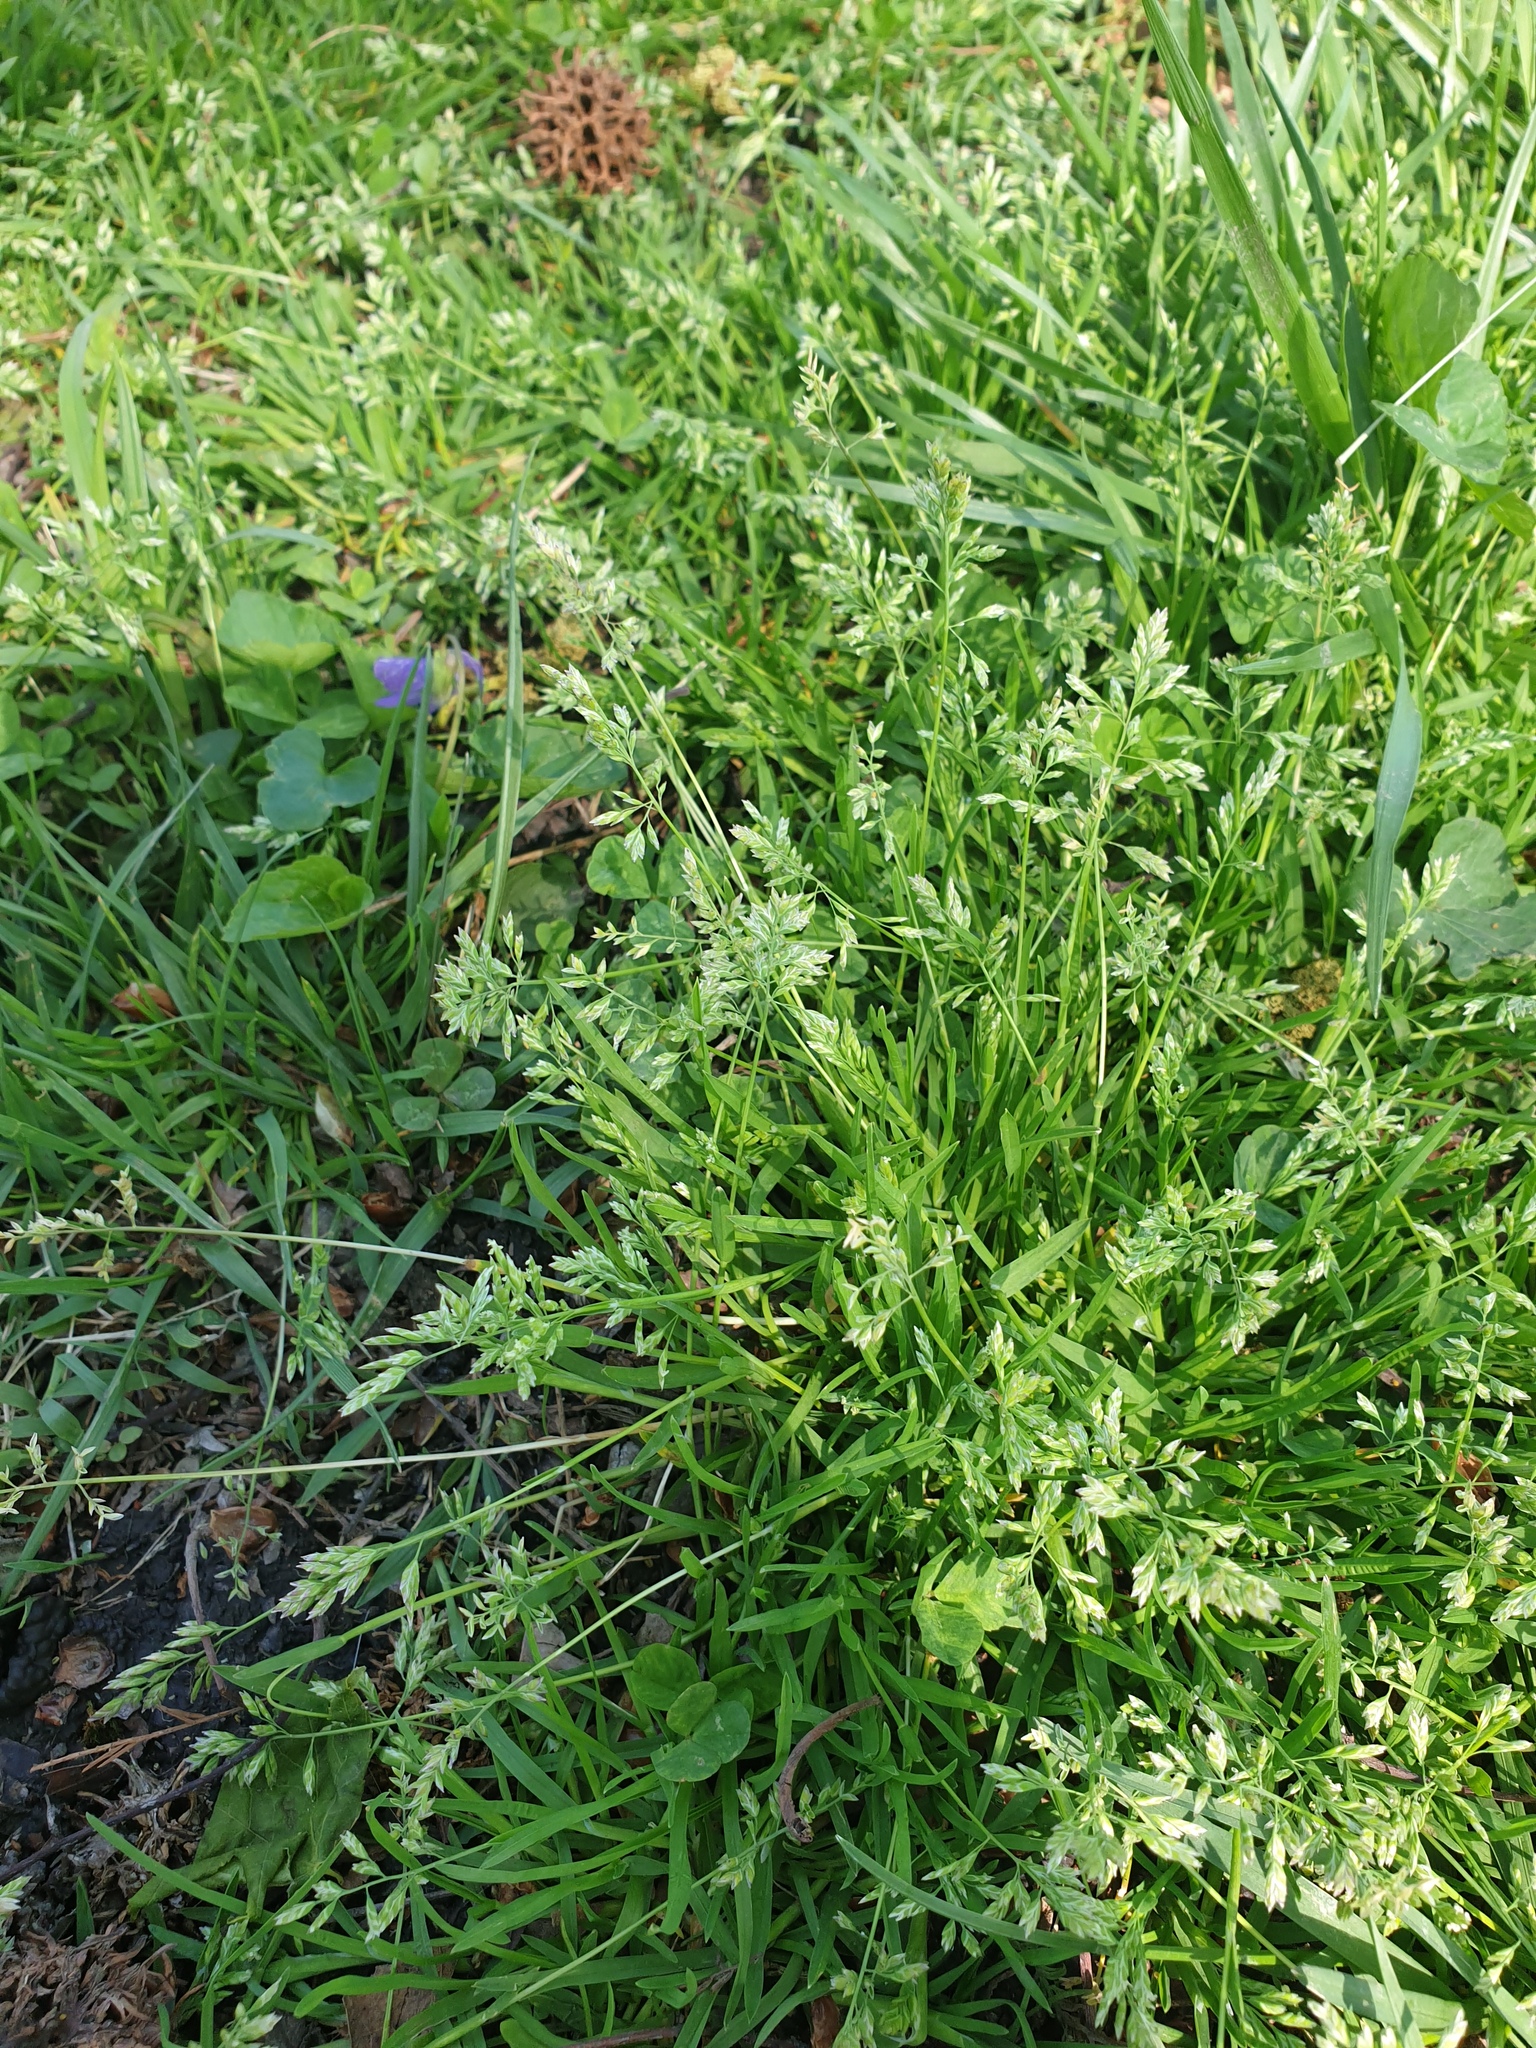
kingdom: Plantae
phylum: Tracheophyta
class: Liliopsida
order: Poales
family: Poaceae
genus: Poa
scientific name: Poa annua
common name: Annual bluegrass
